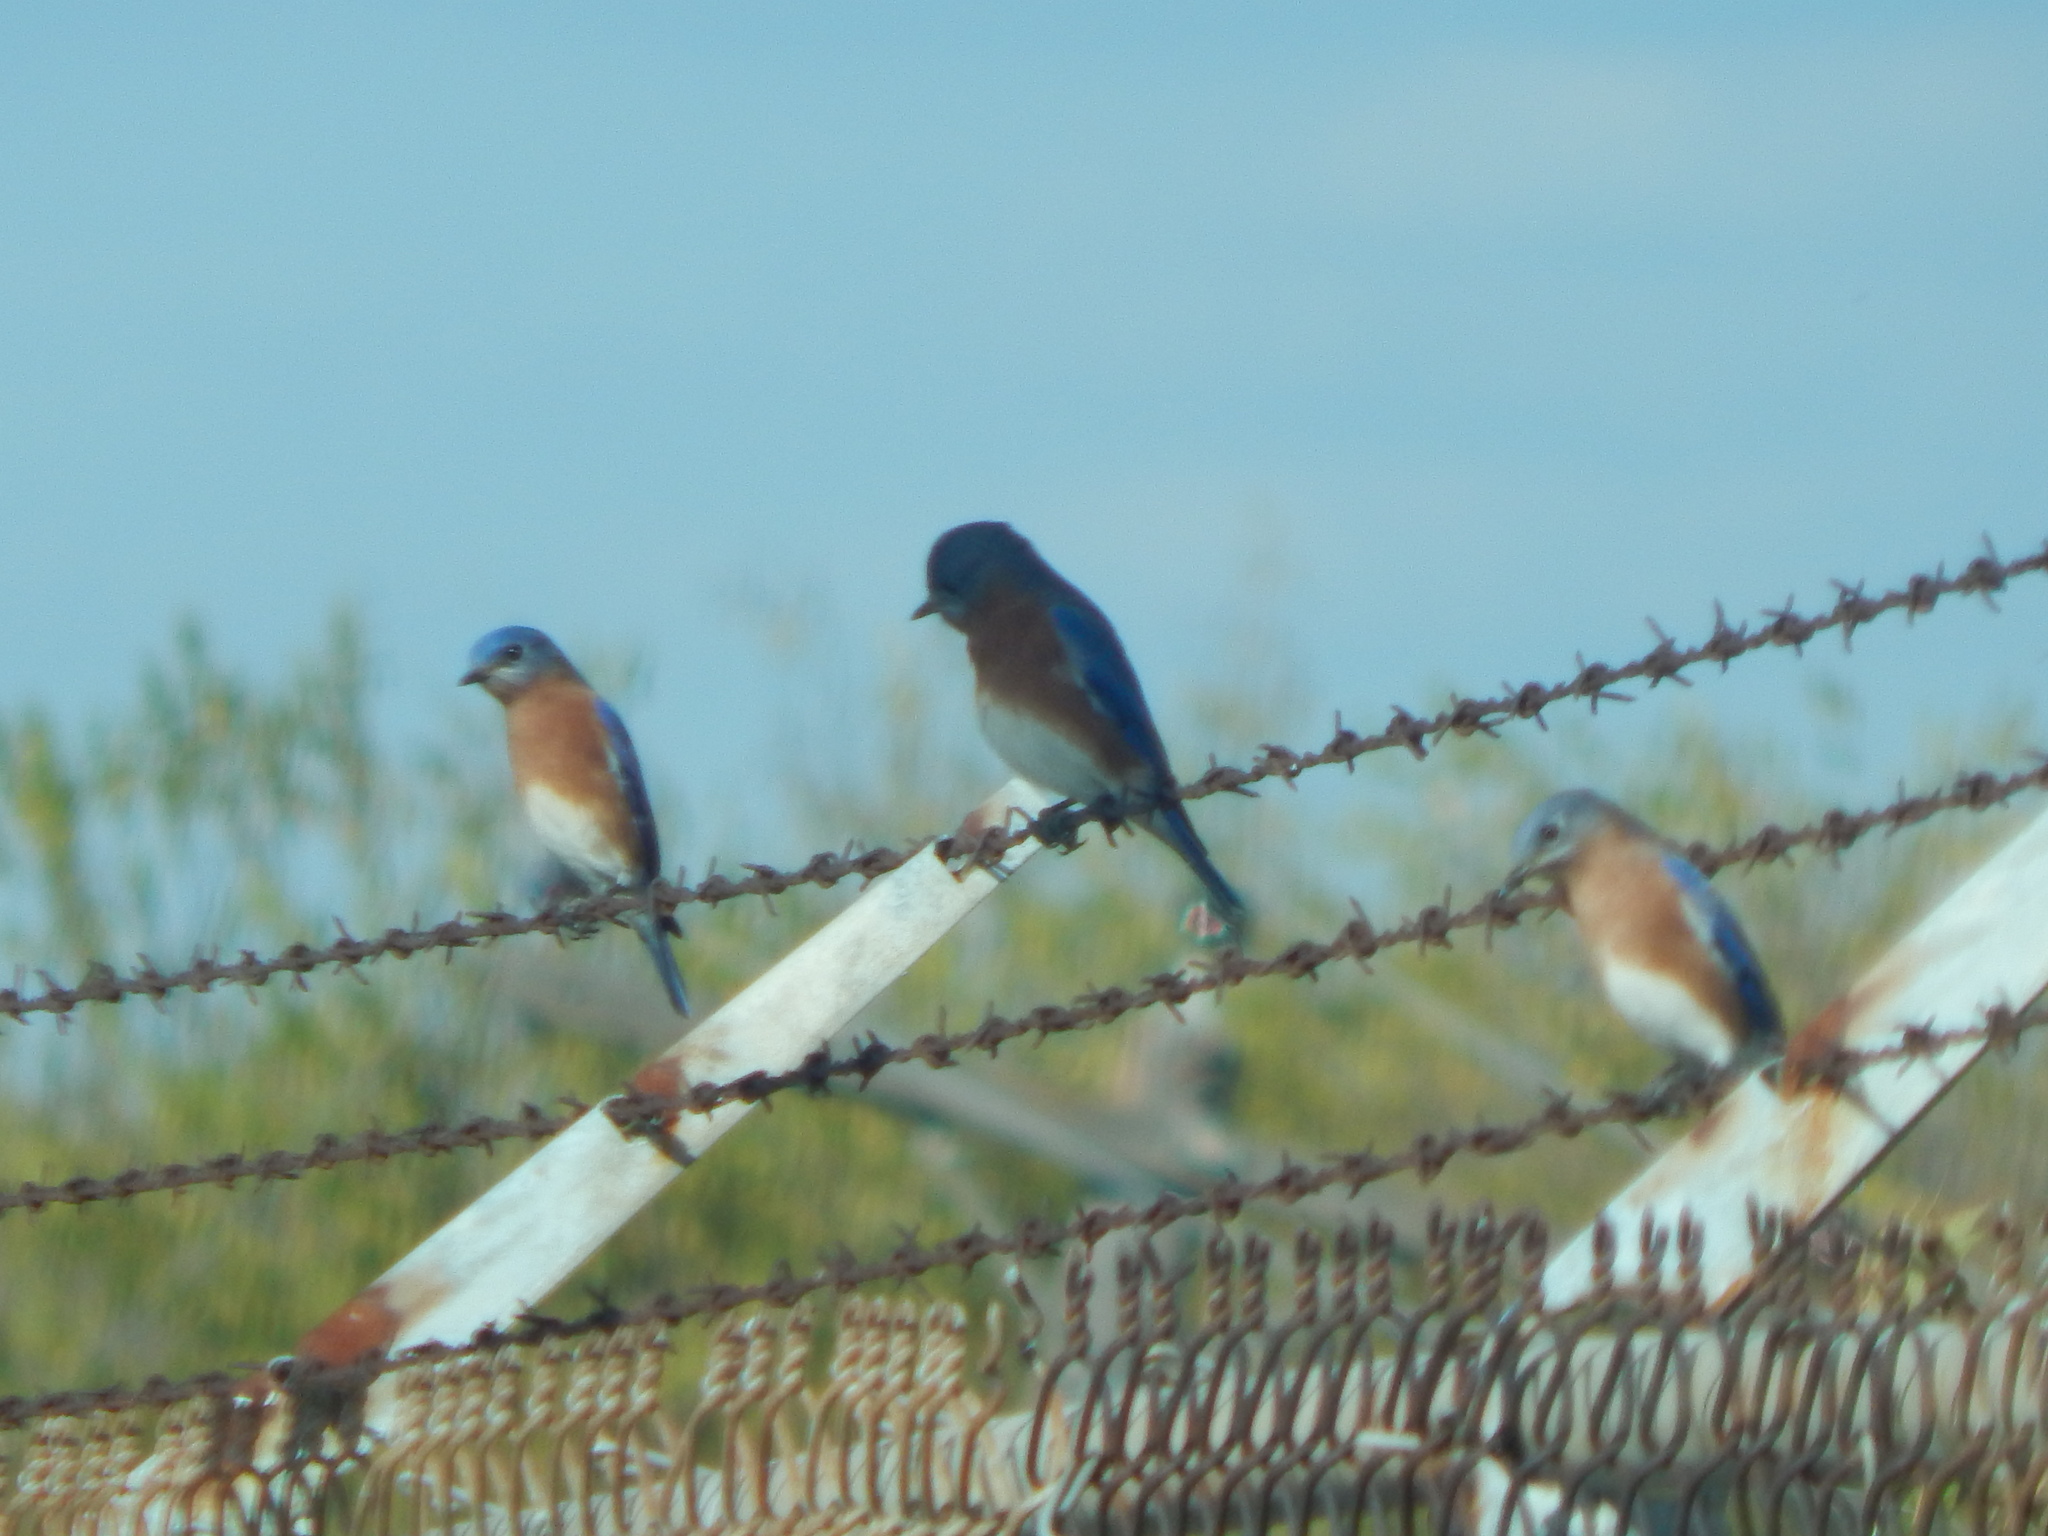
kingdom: Animalia
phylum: Chordata
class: Aves
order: Passeriformes
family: Turdidae
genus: Sialia
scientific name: Sialia sialis
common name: Eastern bluebird
